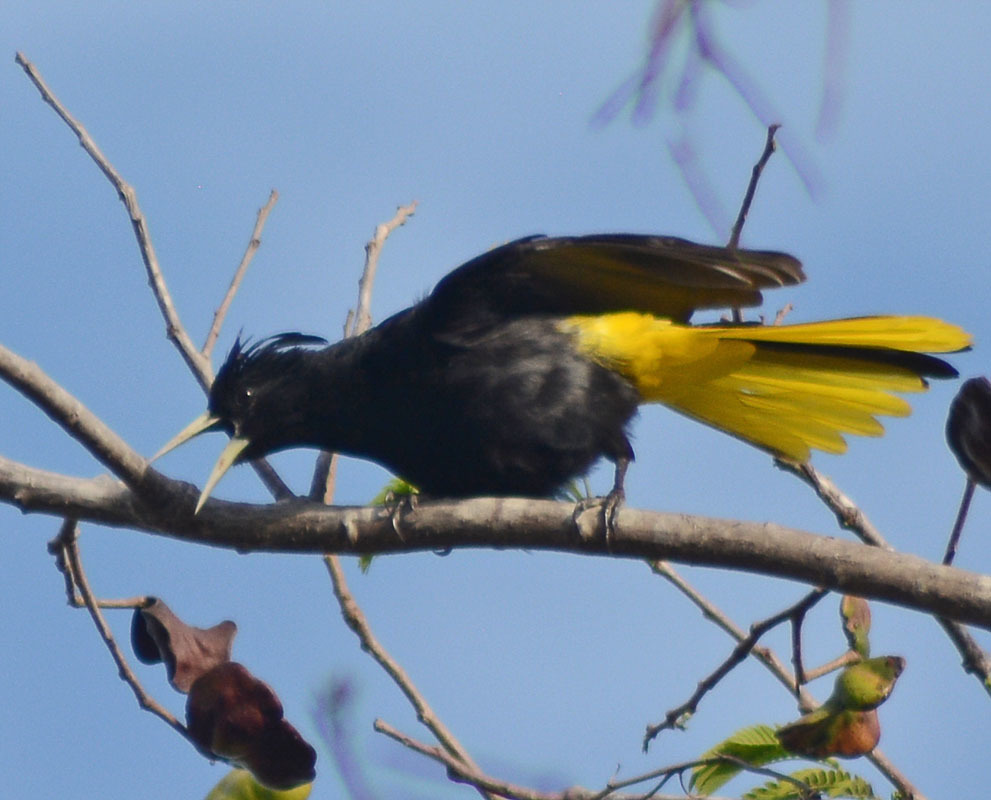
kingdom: Animalia
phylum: Chordata
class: Aves
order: Passeriformes
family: Icteridae
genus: Cacicus
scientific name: Cacicus melanicterus
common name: Yellow-winged cacique
